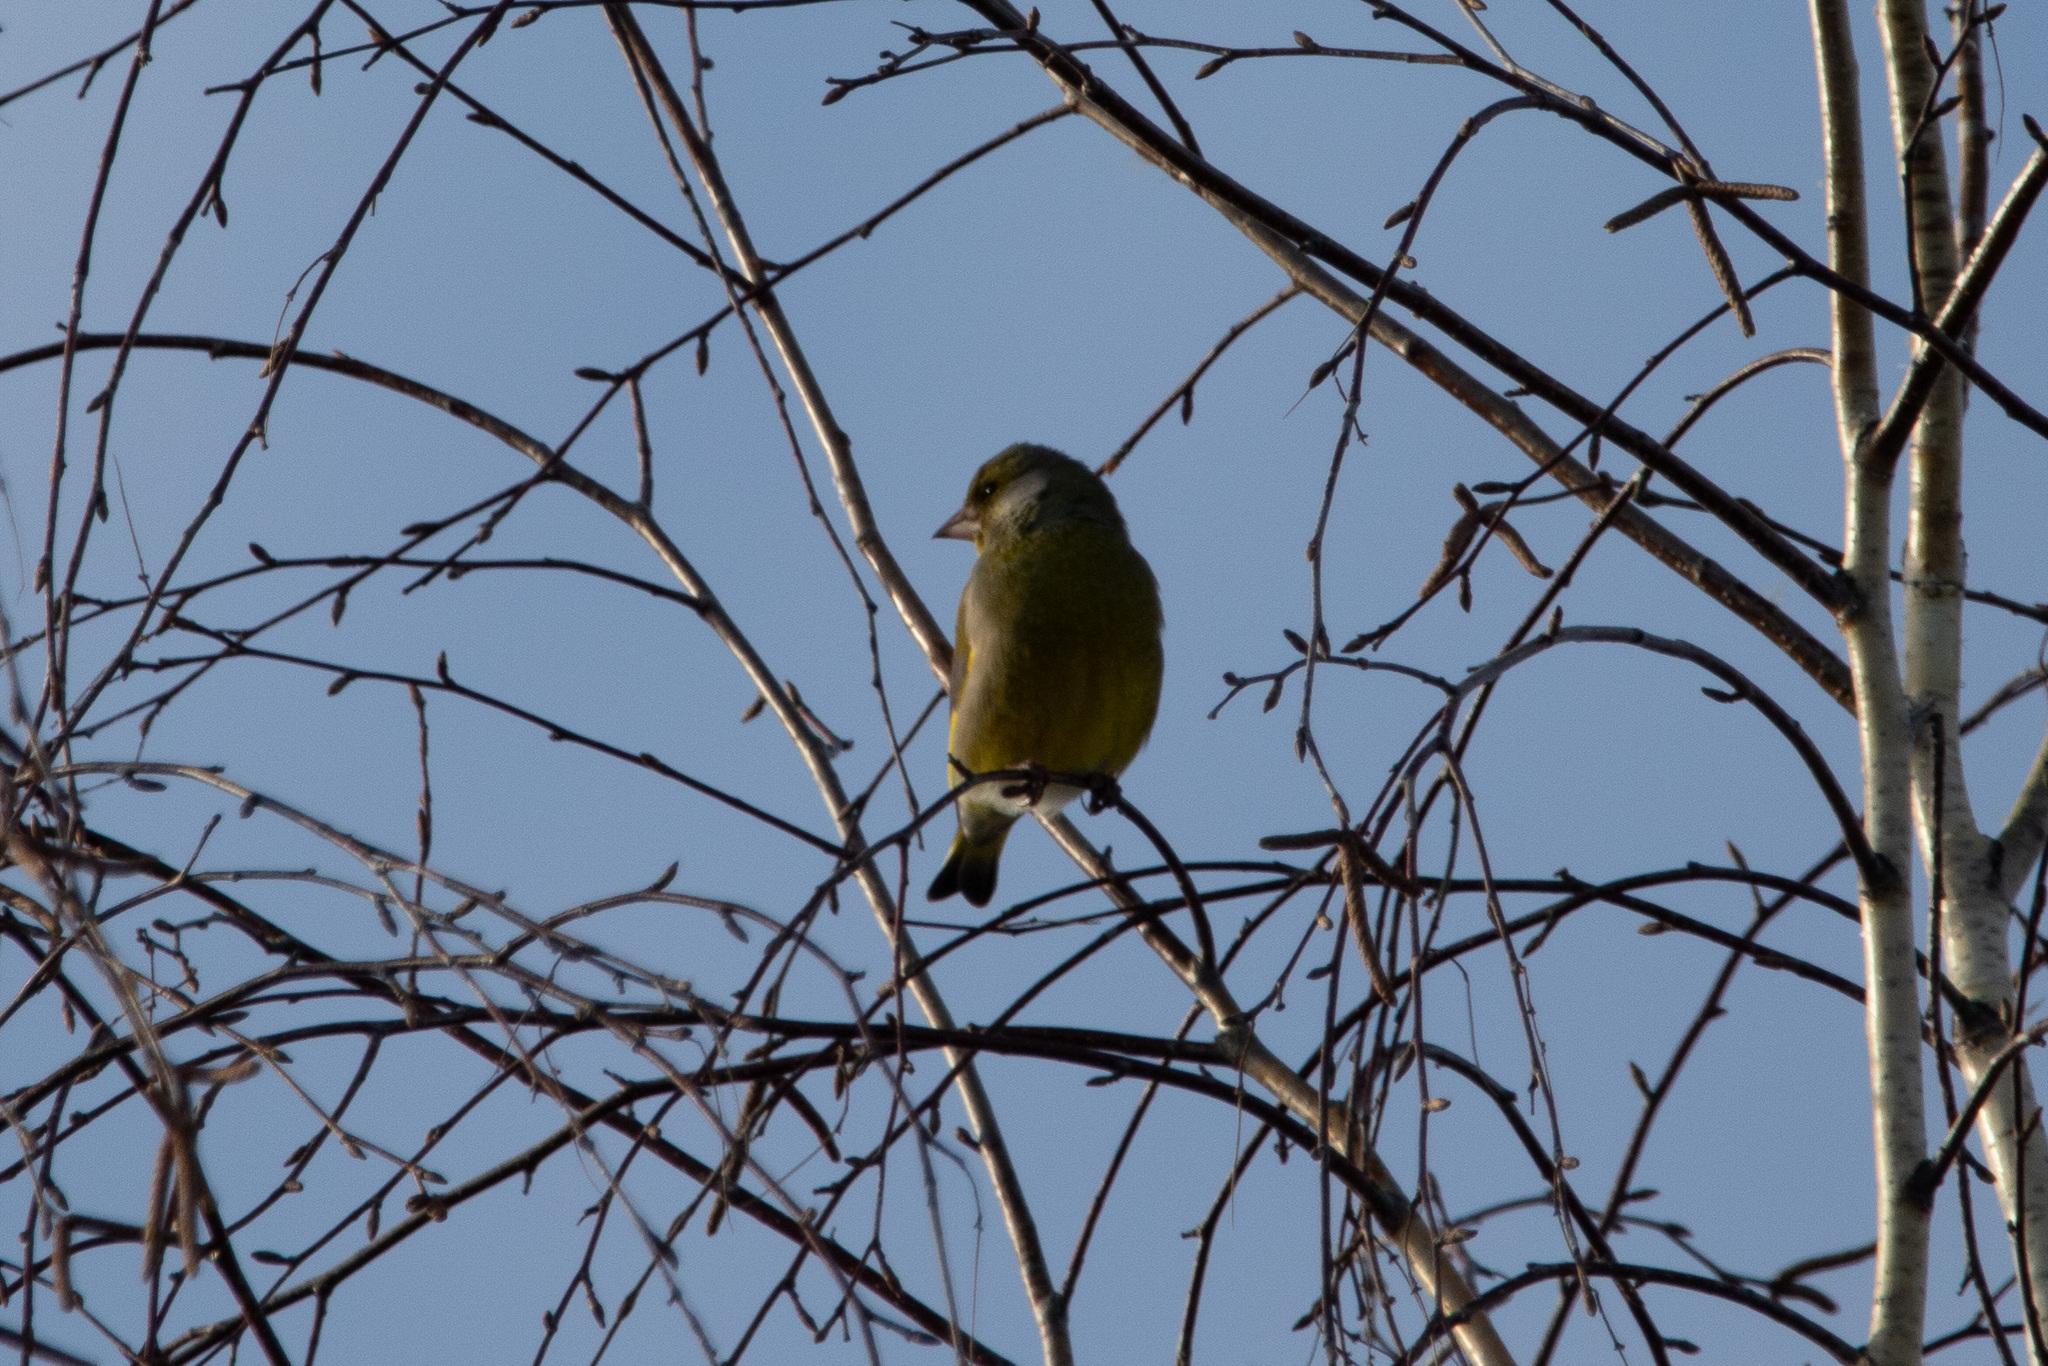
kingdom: Plantae
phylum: Tracheophyta
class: Liliopsida
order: Poales
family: Poaceae
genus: Chloris
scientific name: Chloris chloris
